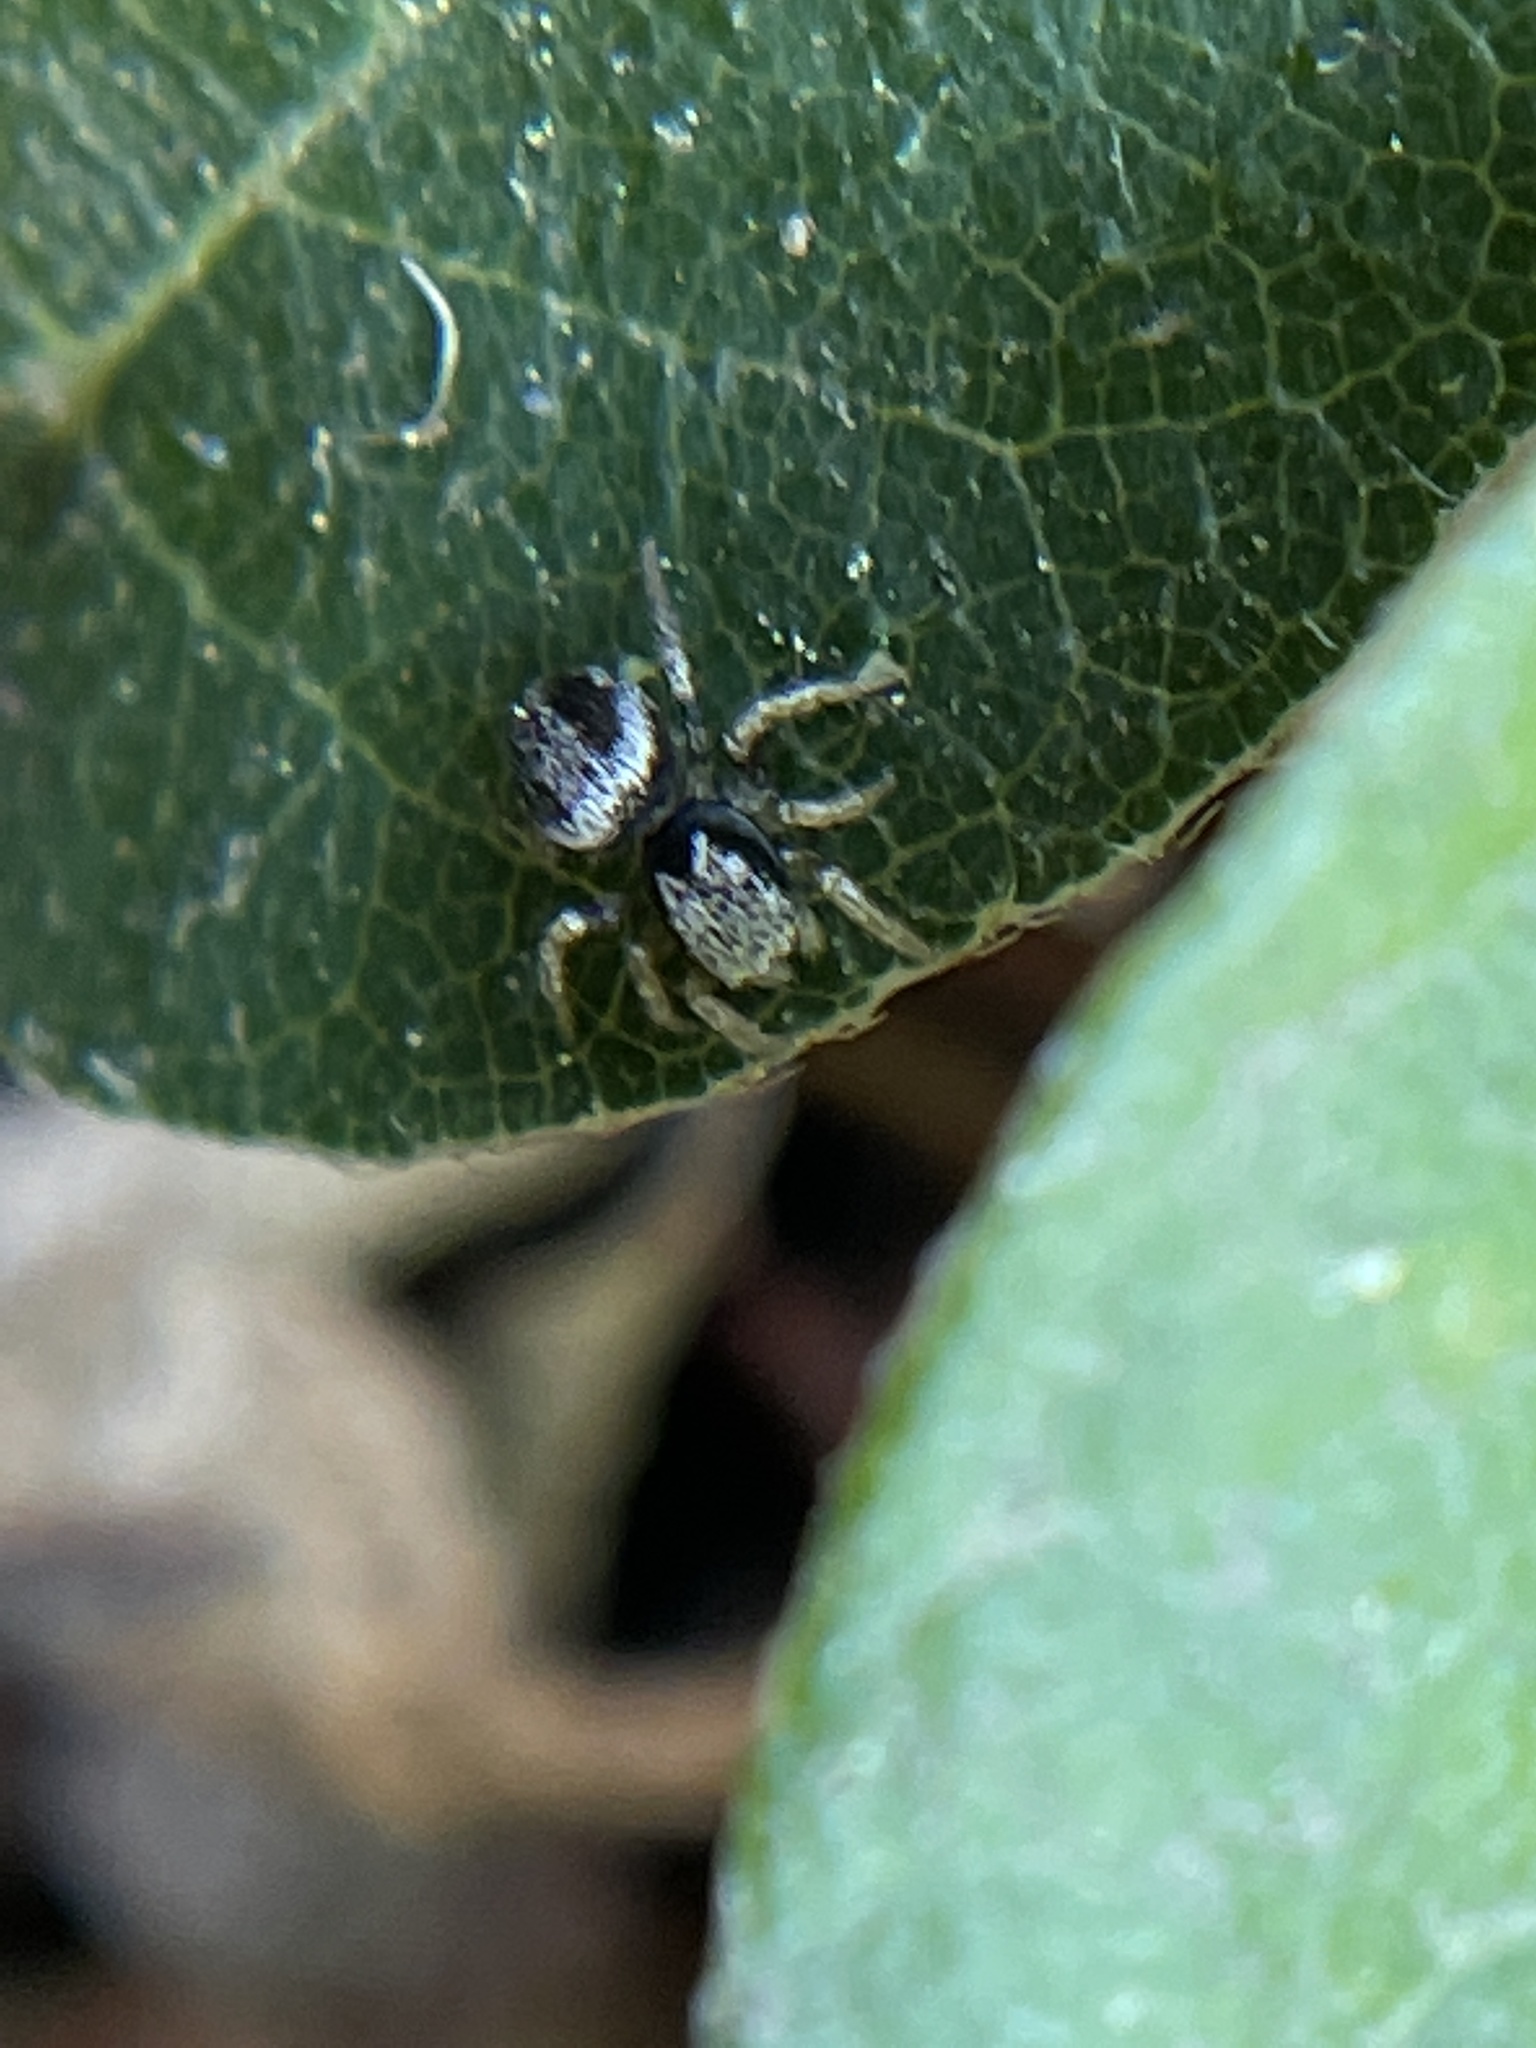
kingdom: Animalia
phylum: Arthropoda
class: Arachnida
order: Araneae
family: Salticidae
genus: Habronattus
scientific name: Habronattus pyrrithrix
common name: Jumping spider
